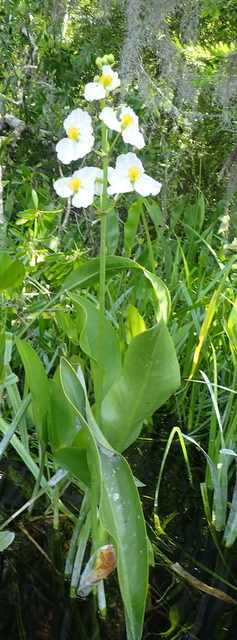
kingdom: Plantae
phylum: Tracheophyta
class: Liliopsida
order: Alismatales
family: Alismataceae
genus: Sagittaria
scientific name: Sagittaria lancifolia
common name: Lance-leaf arrowhead
